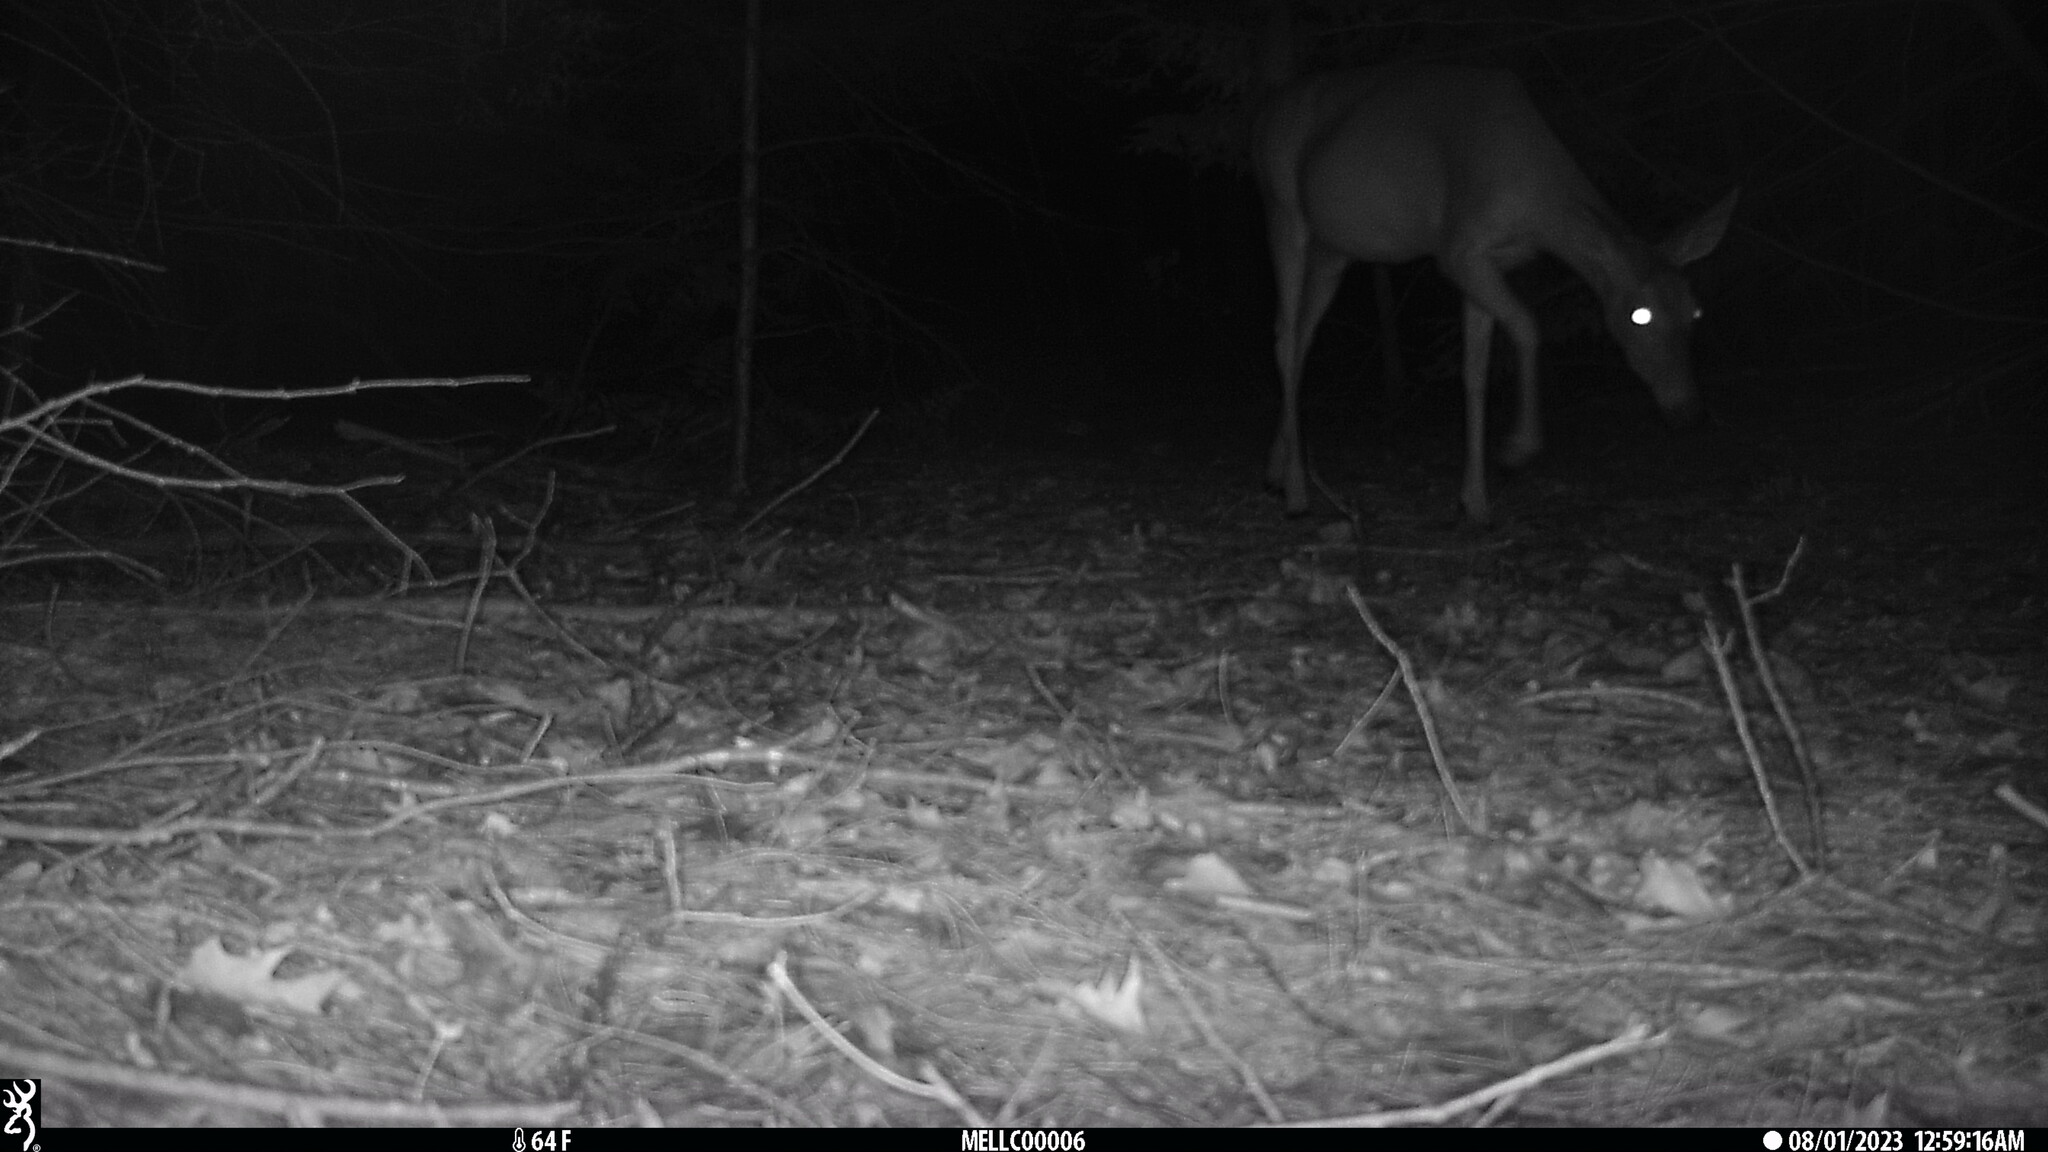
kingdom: Animalia
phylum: Chordata
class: Mammalia
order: Artiodactyla
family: Cervidae
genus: Odocoileus
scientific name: Odocoileus virginianus
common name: White-tailed deer
